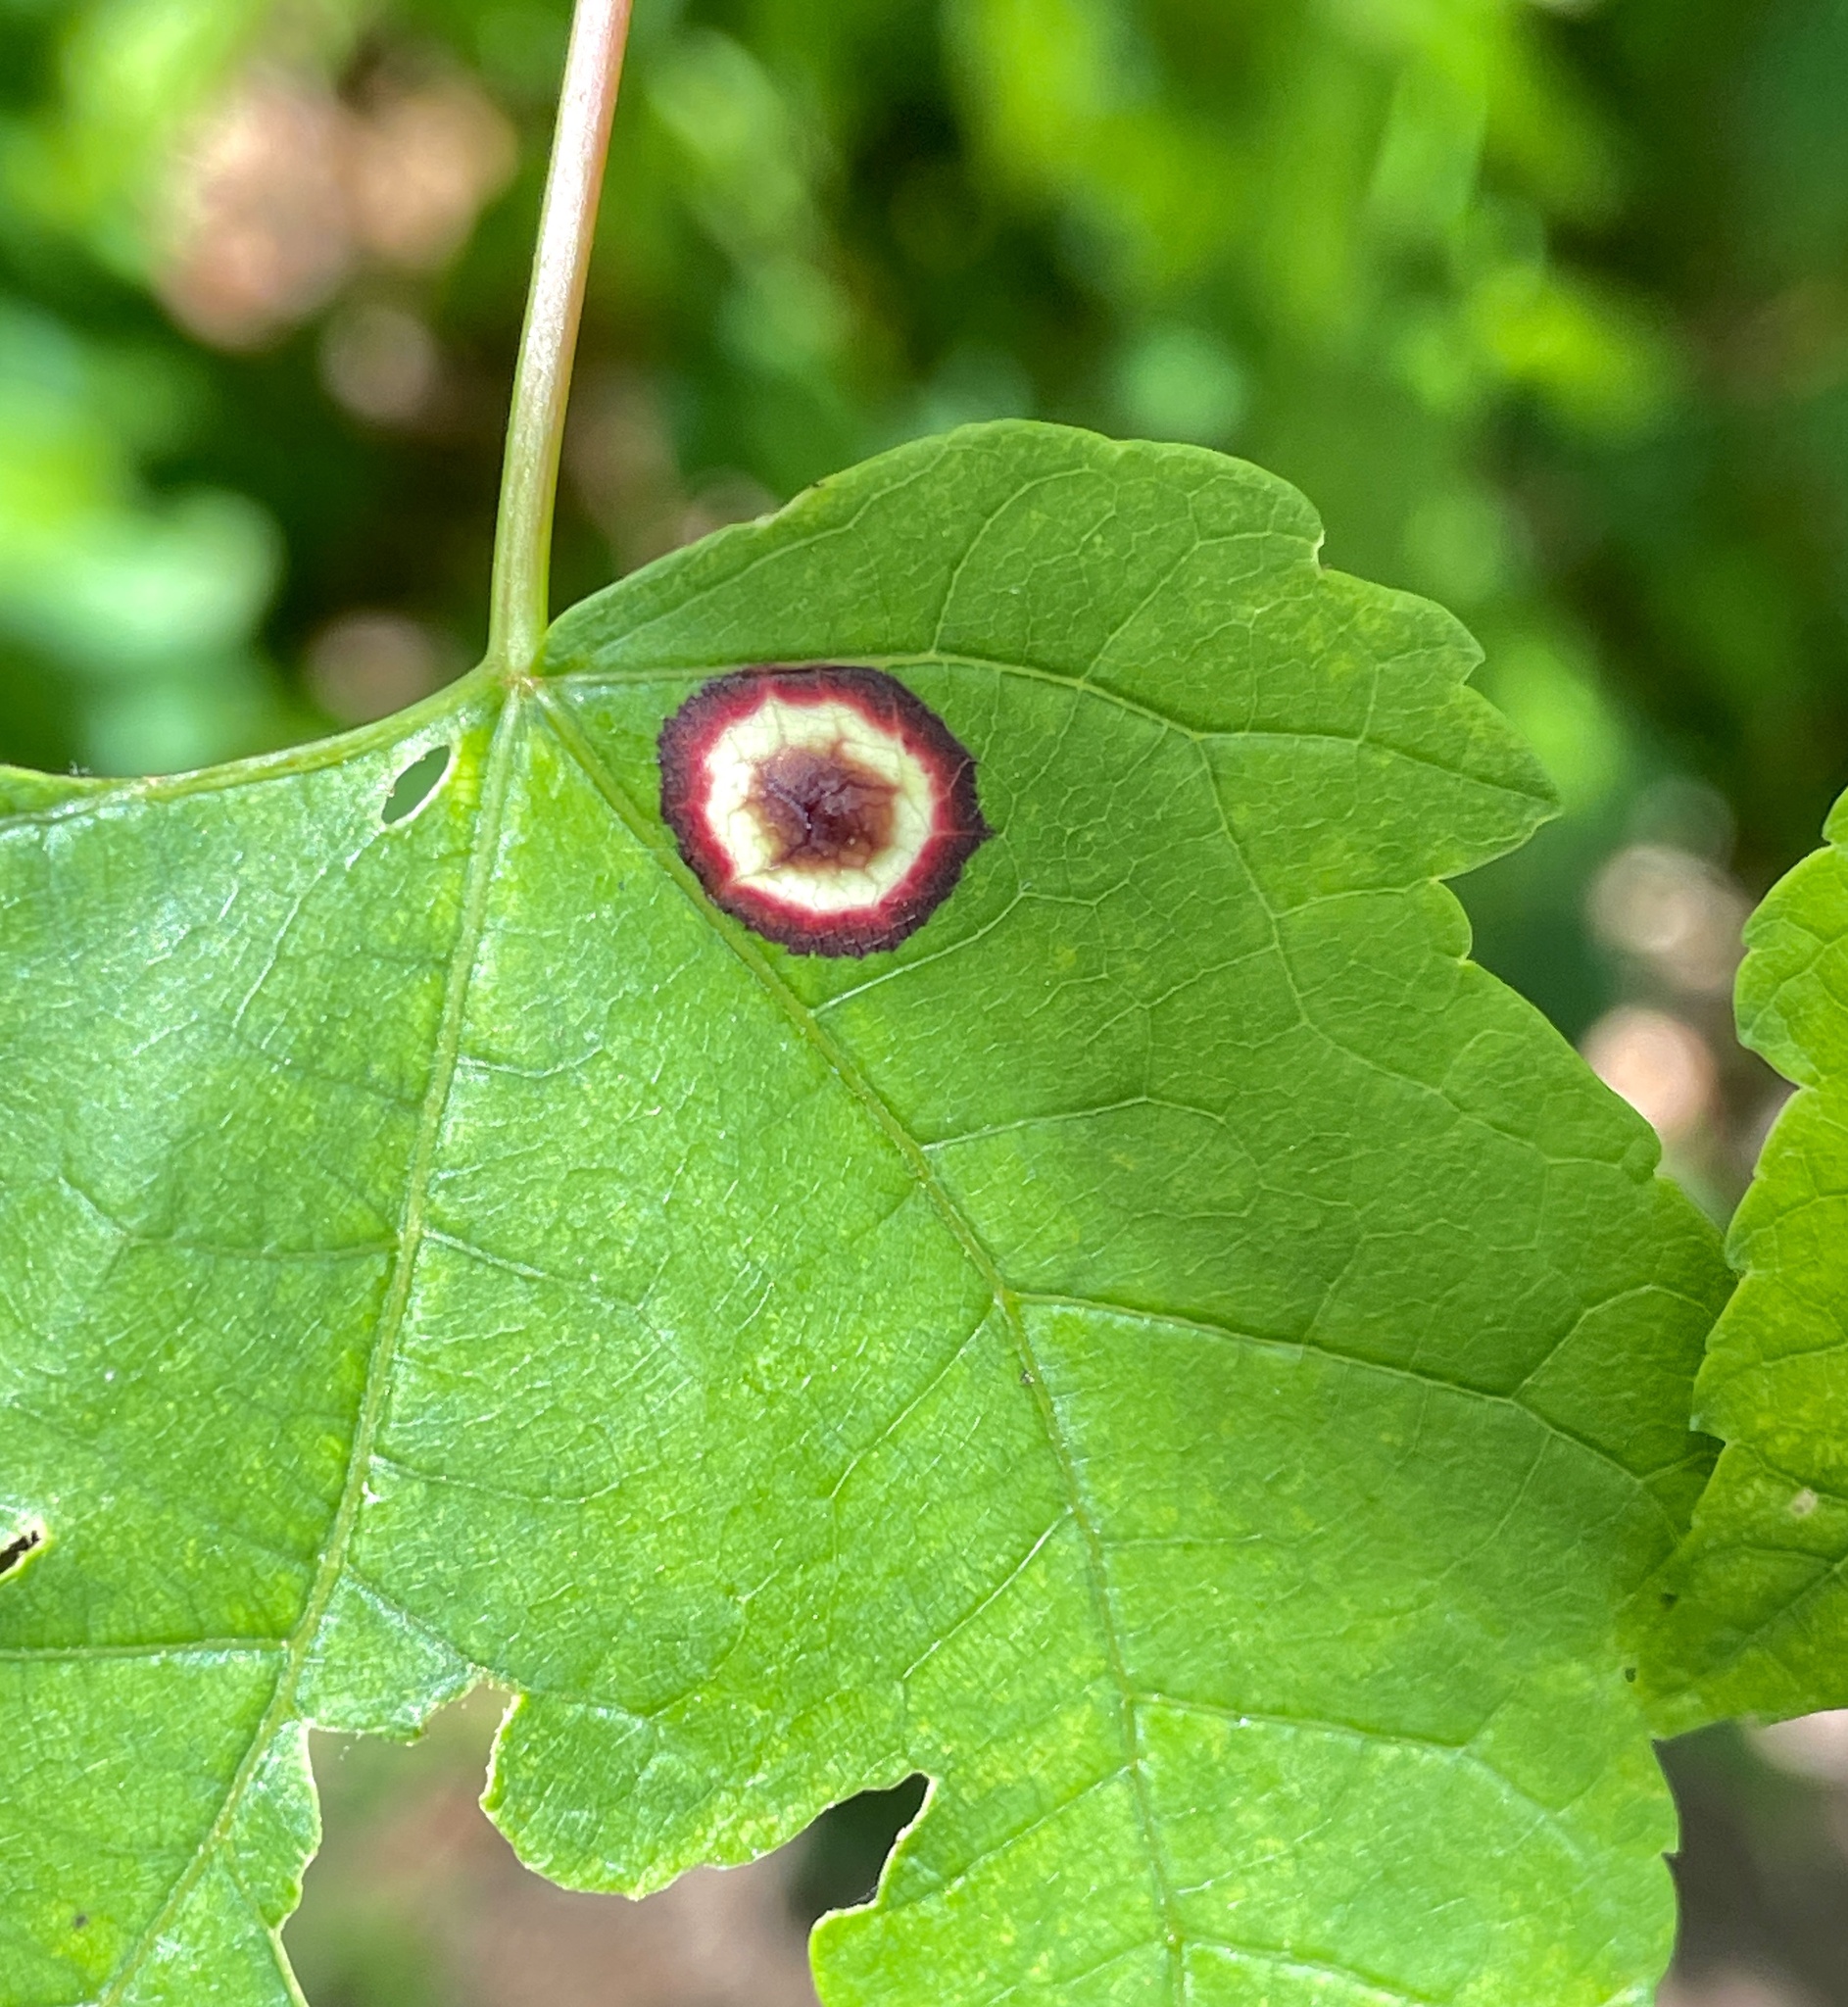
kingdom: Animalia
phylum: Arthropoda
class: Insecta
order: Diptera
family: Cecidomyiidae
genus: Acericecis
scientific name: Acericecis ocellaris
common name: Ocellate gall midge
